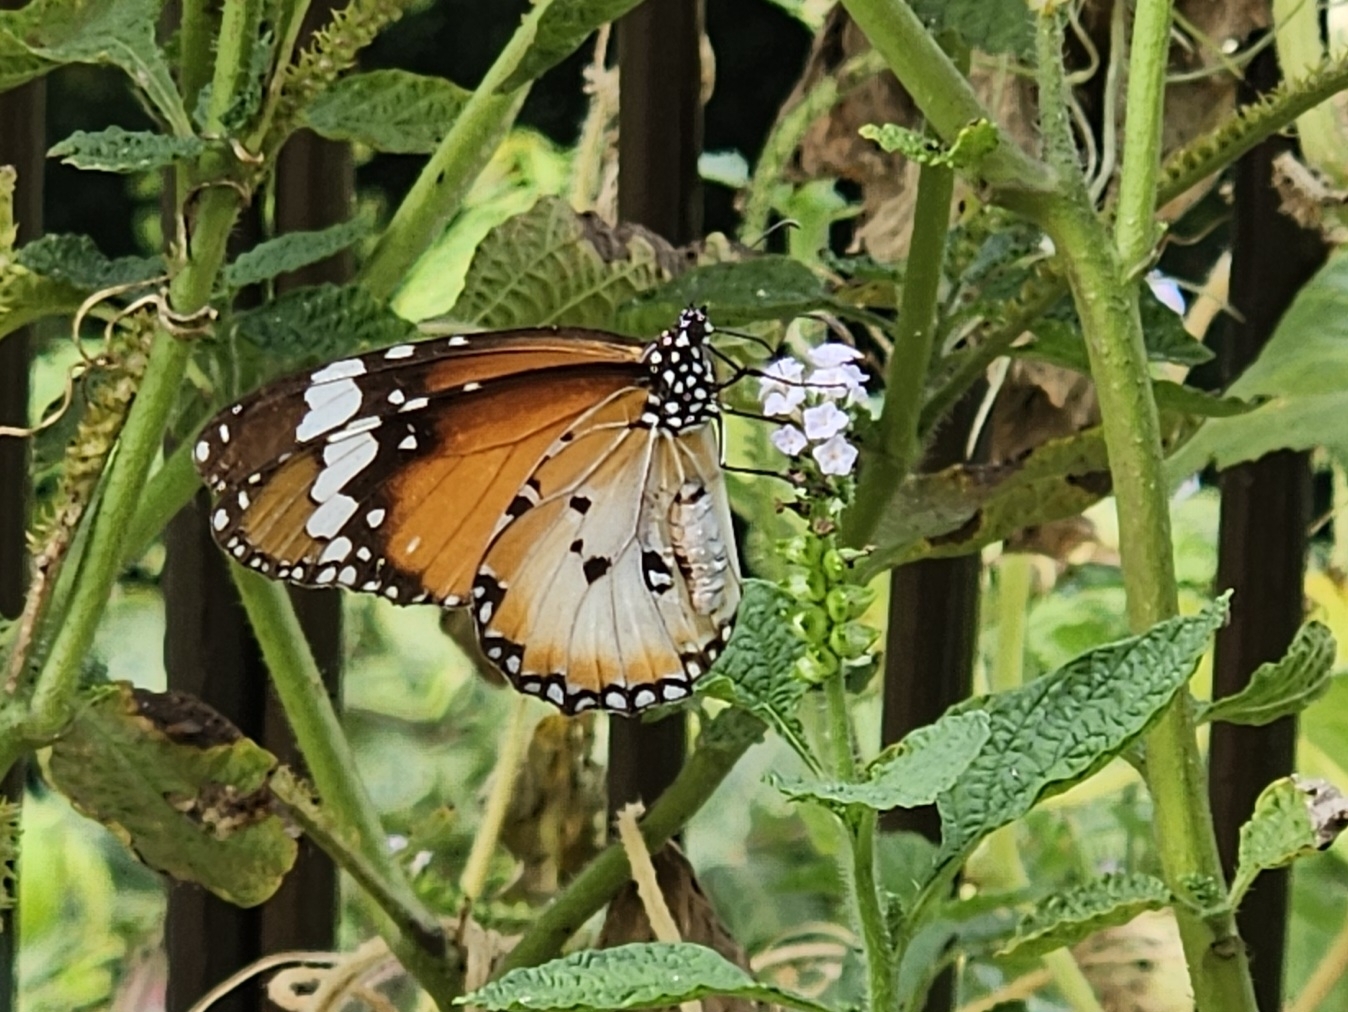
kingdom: Animalia
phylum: Arthropoda
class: Insecta
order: Lepidoptera
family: Nymphalidae
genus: Danaus
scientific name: Danaus chrysippus
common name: Plain tiger
